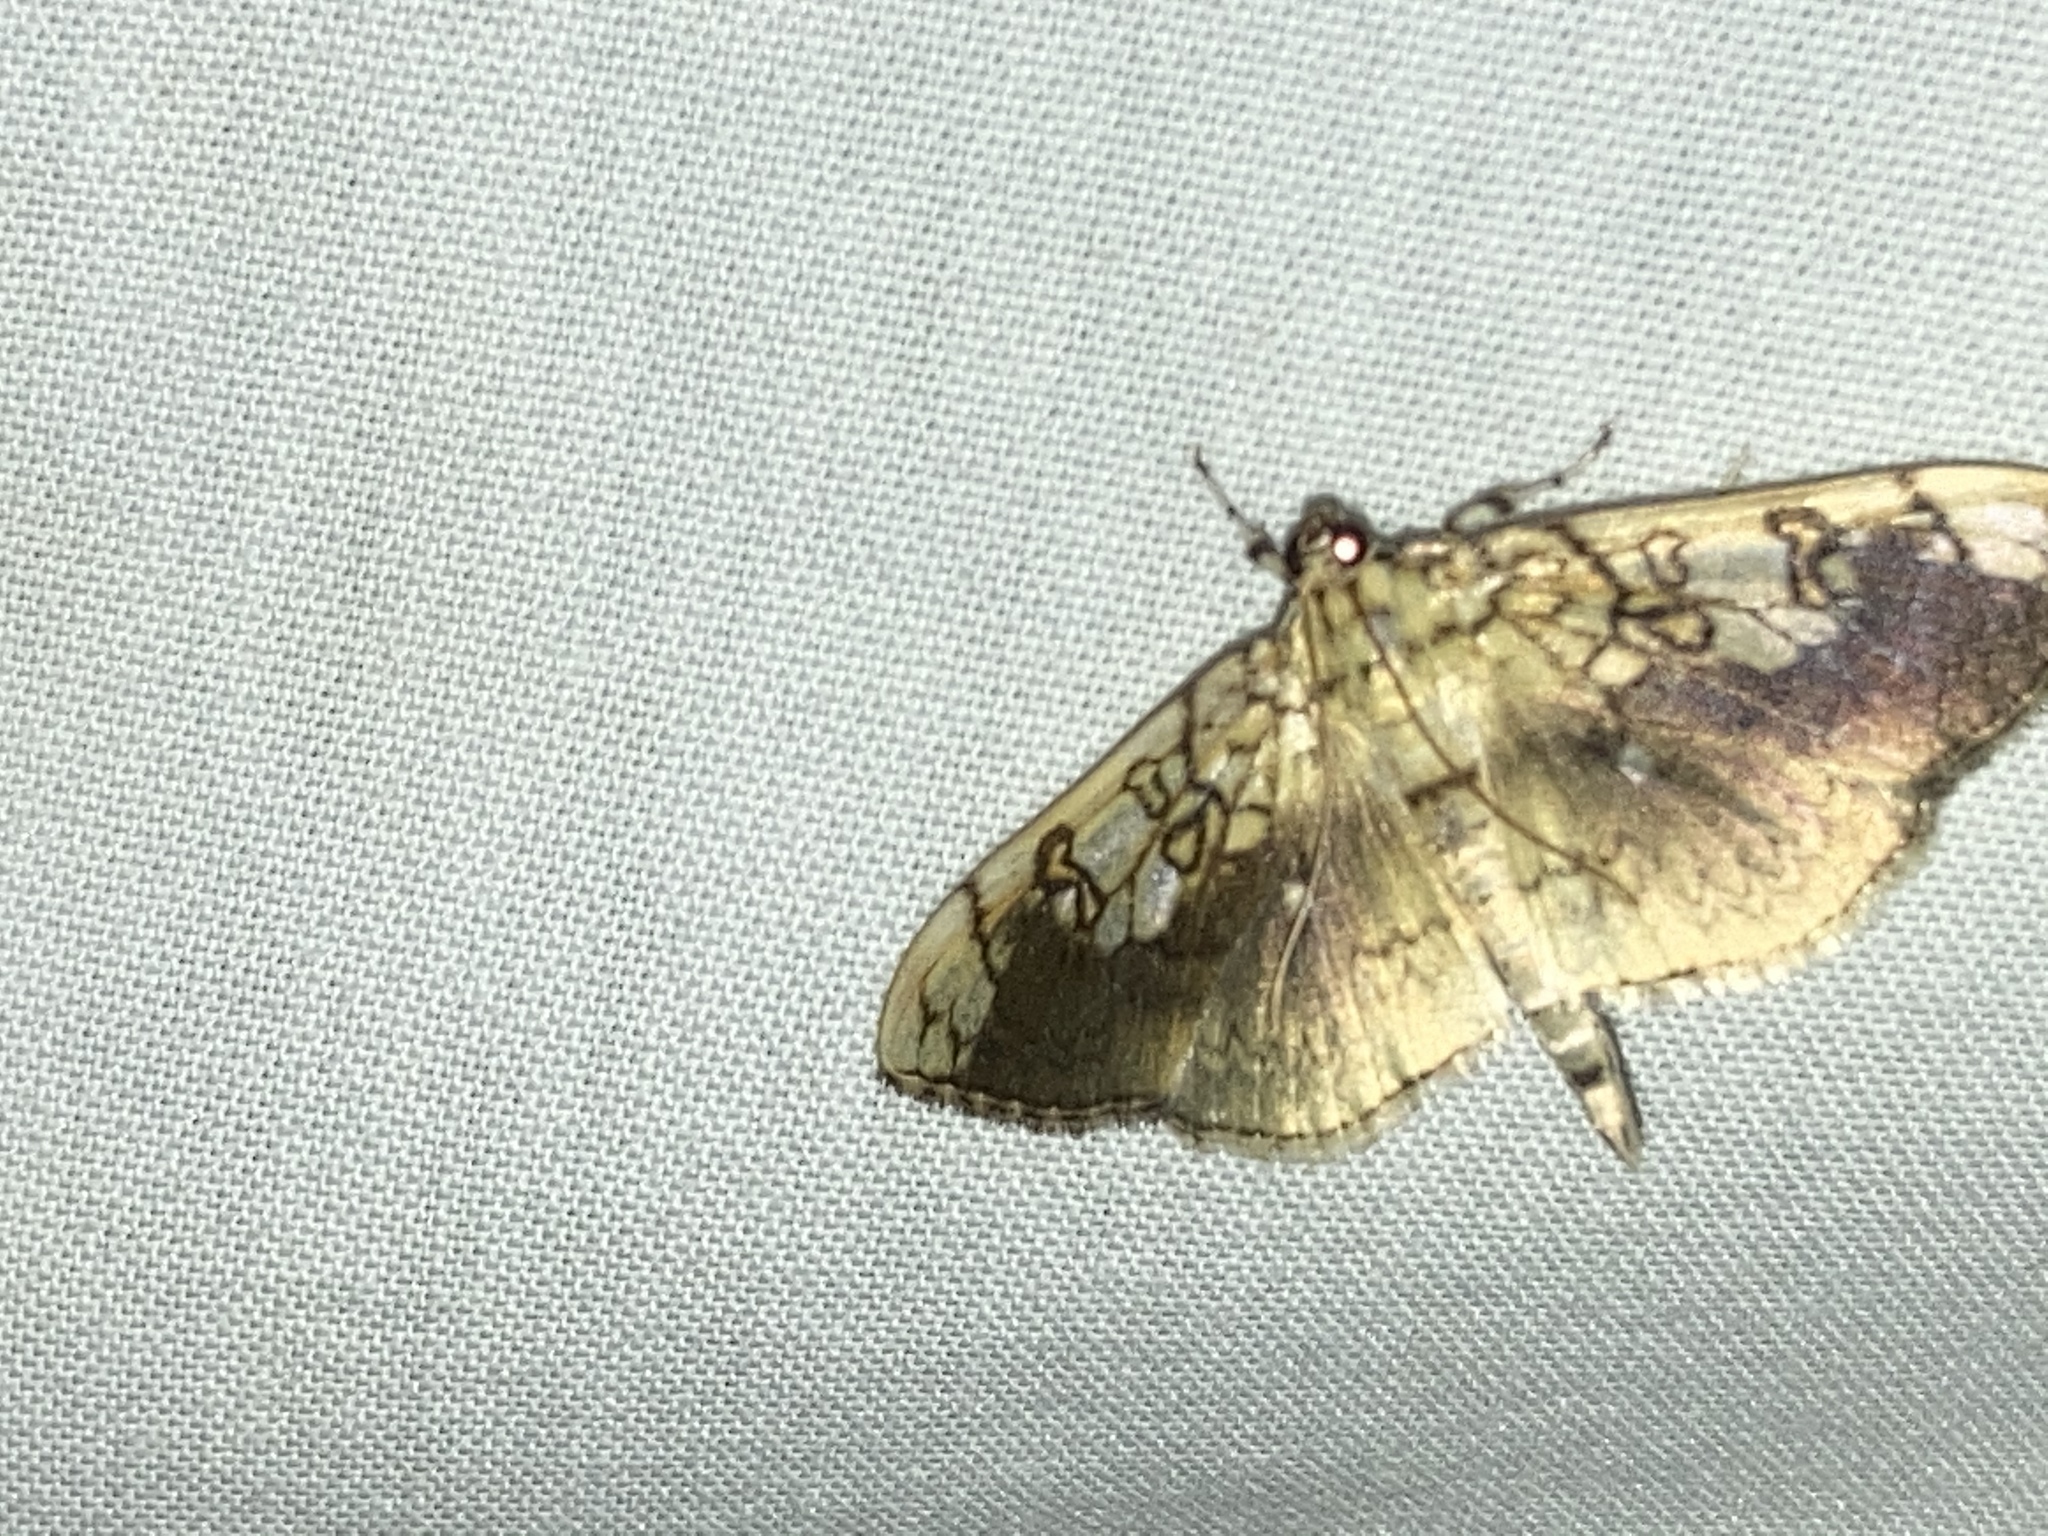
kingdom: Animalia
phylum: Arthropoda
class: Insecta
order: Lepidoptera
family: Crambidae
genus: Pantographa
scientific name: Pantographa limata
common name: Basswood leafroller moth
